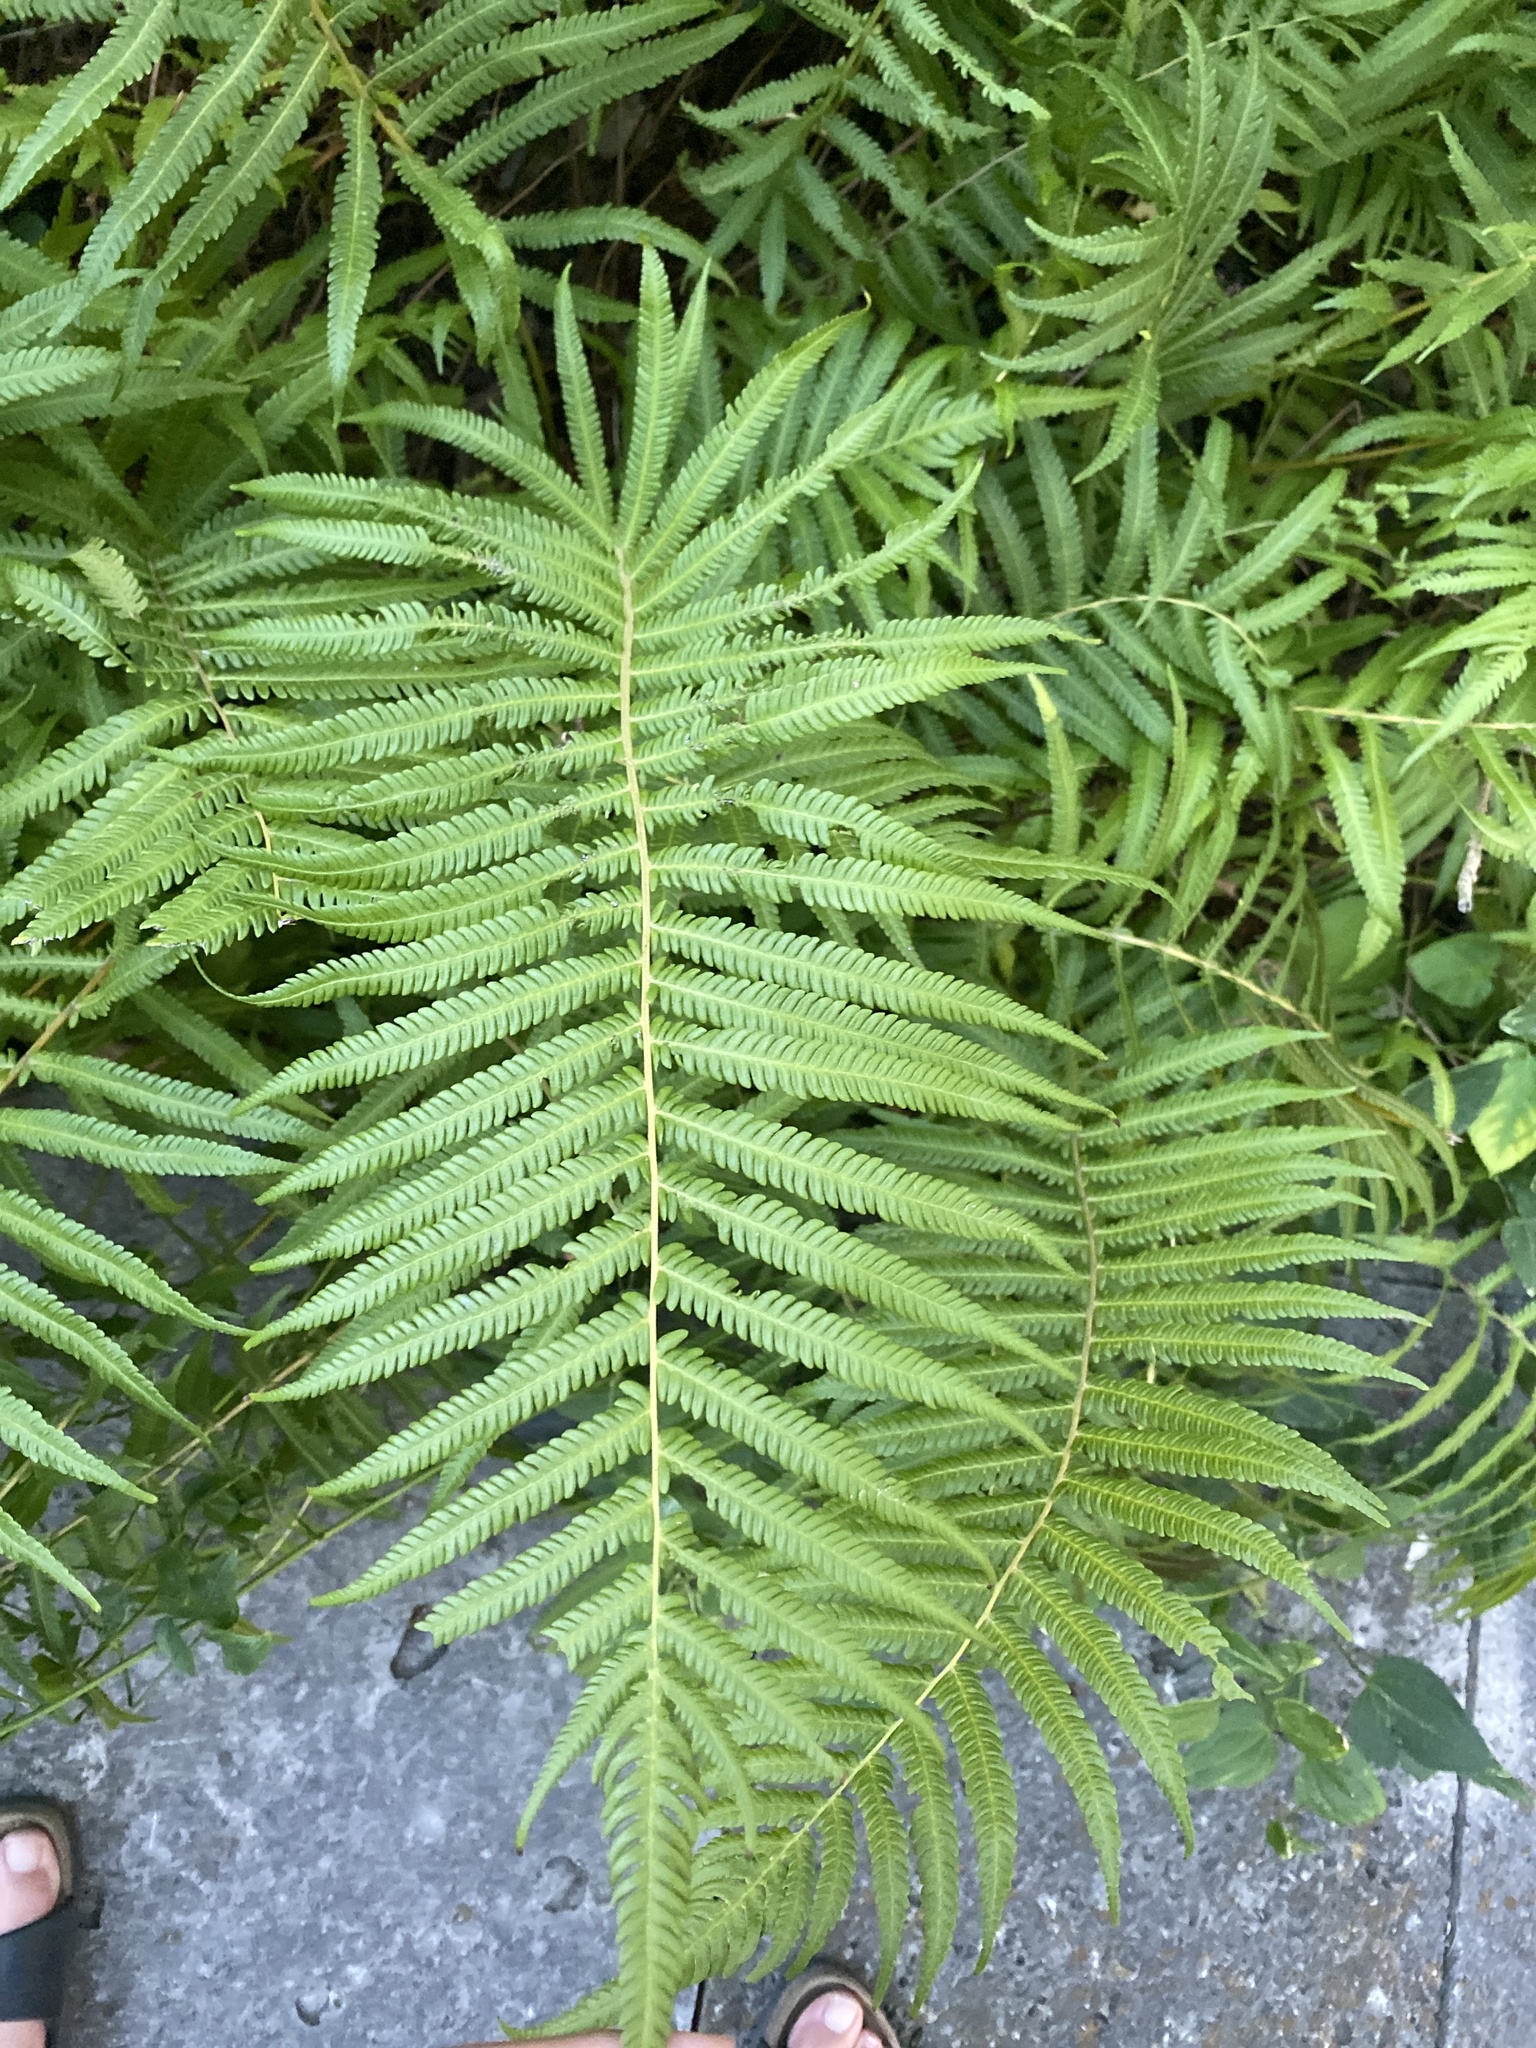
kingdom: Plantae
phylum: Tracheophyta
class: Polypodiopsida
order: Polypodiales
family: Thelypteridaceae
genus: Pelazoneuron
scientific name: Pelazoneuron ovatum
